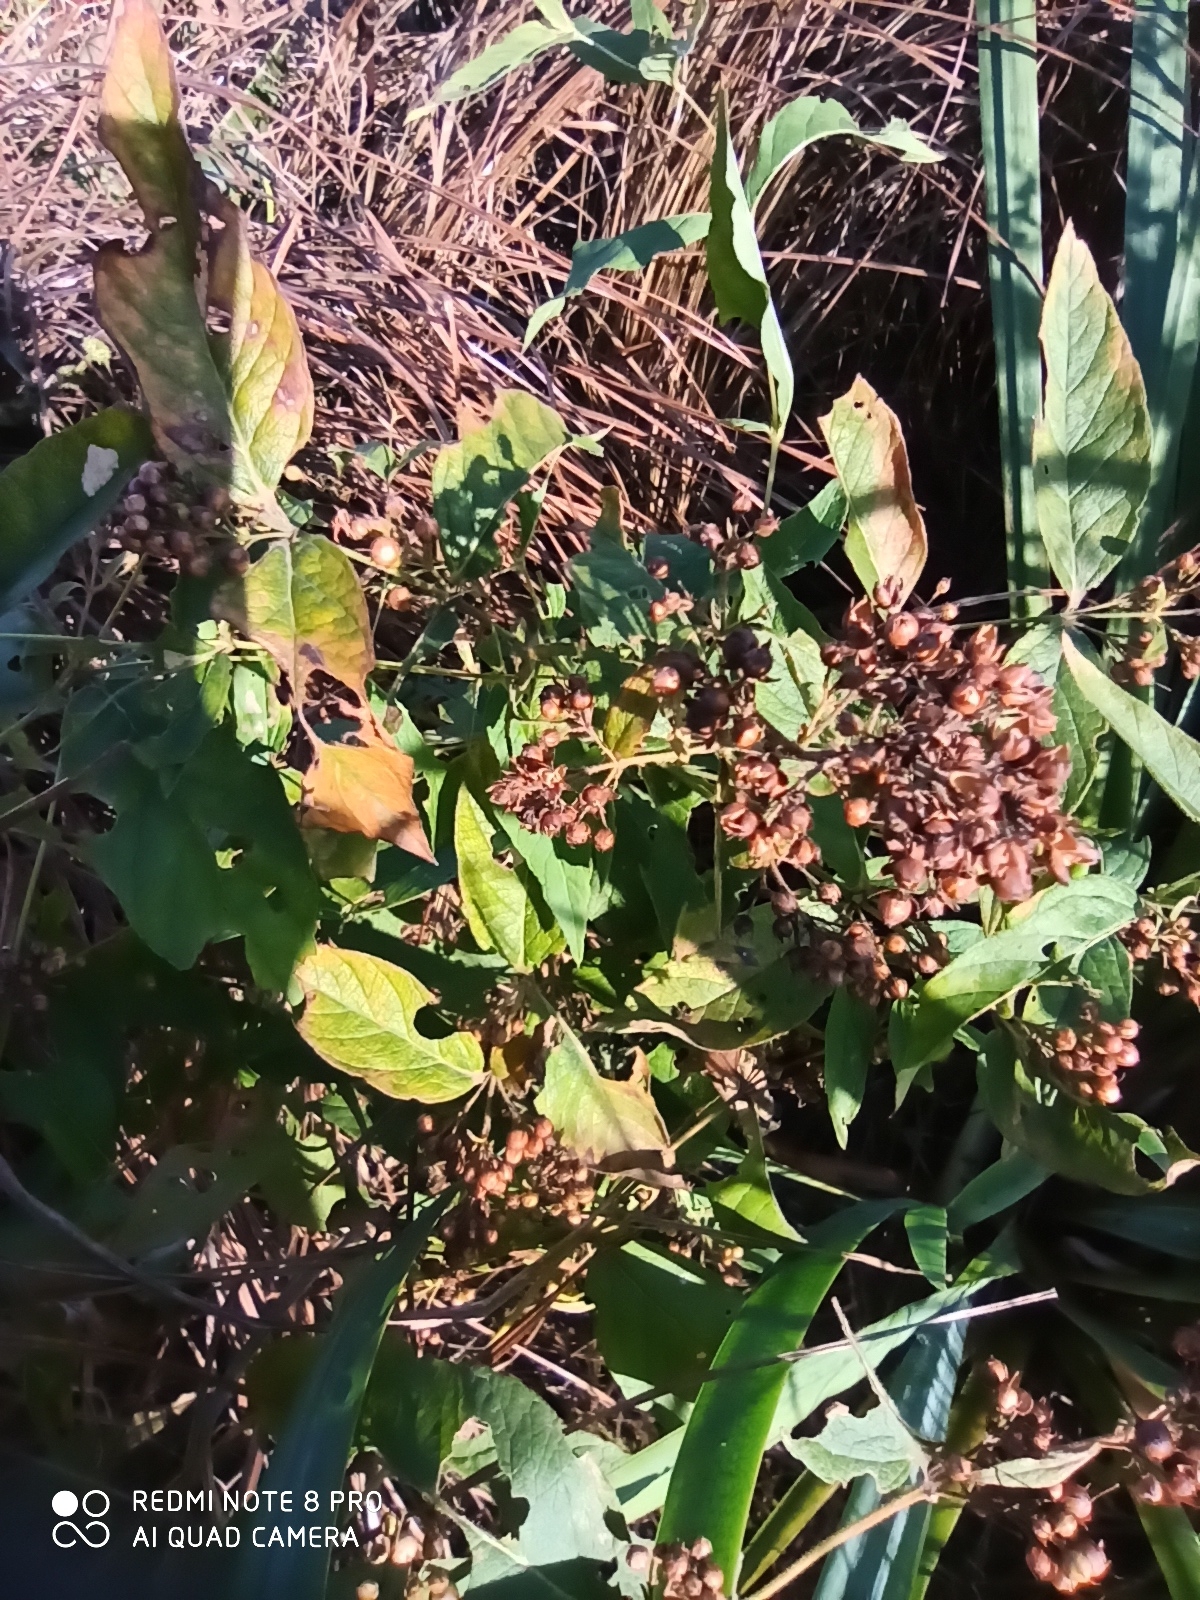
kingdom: Plantae
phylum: Tracheophyta
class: Magnoliopsida
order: Ericales
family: Primulaceae
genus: Lysimachia
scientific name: Lysimachia vulgaris
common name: Yellow loosestrife
